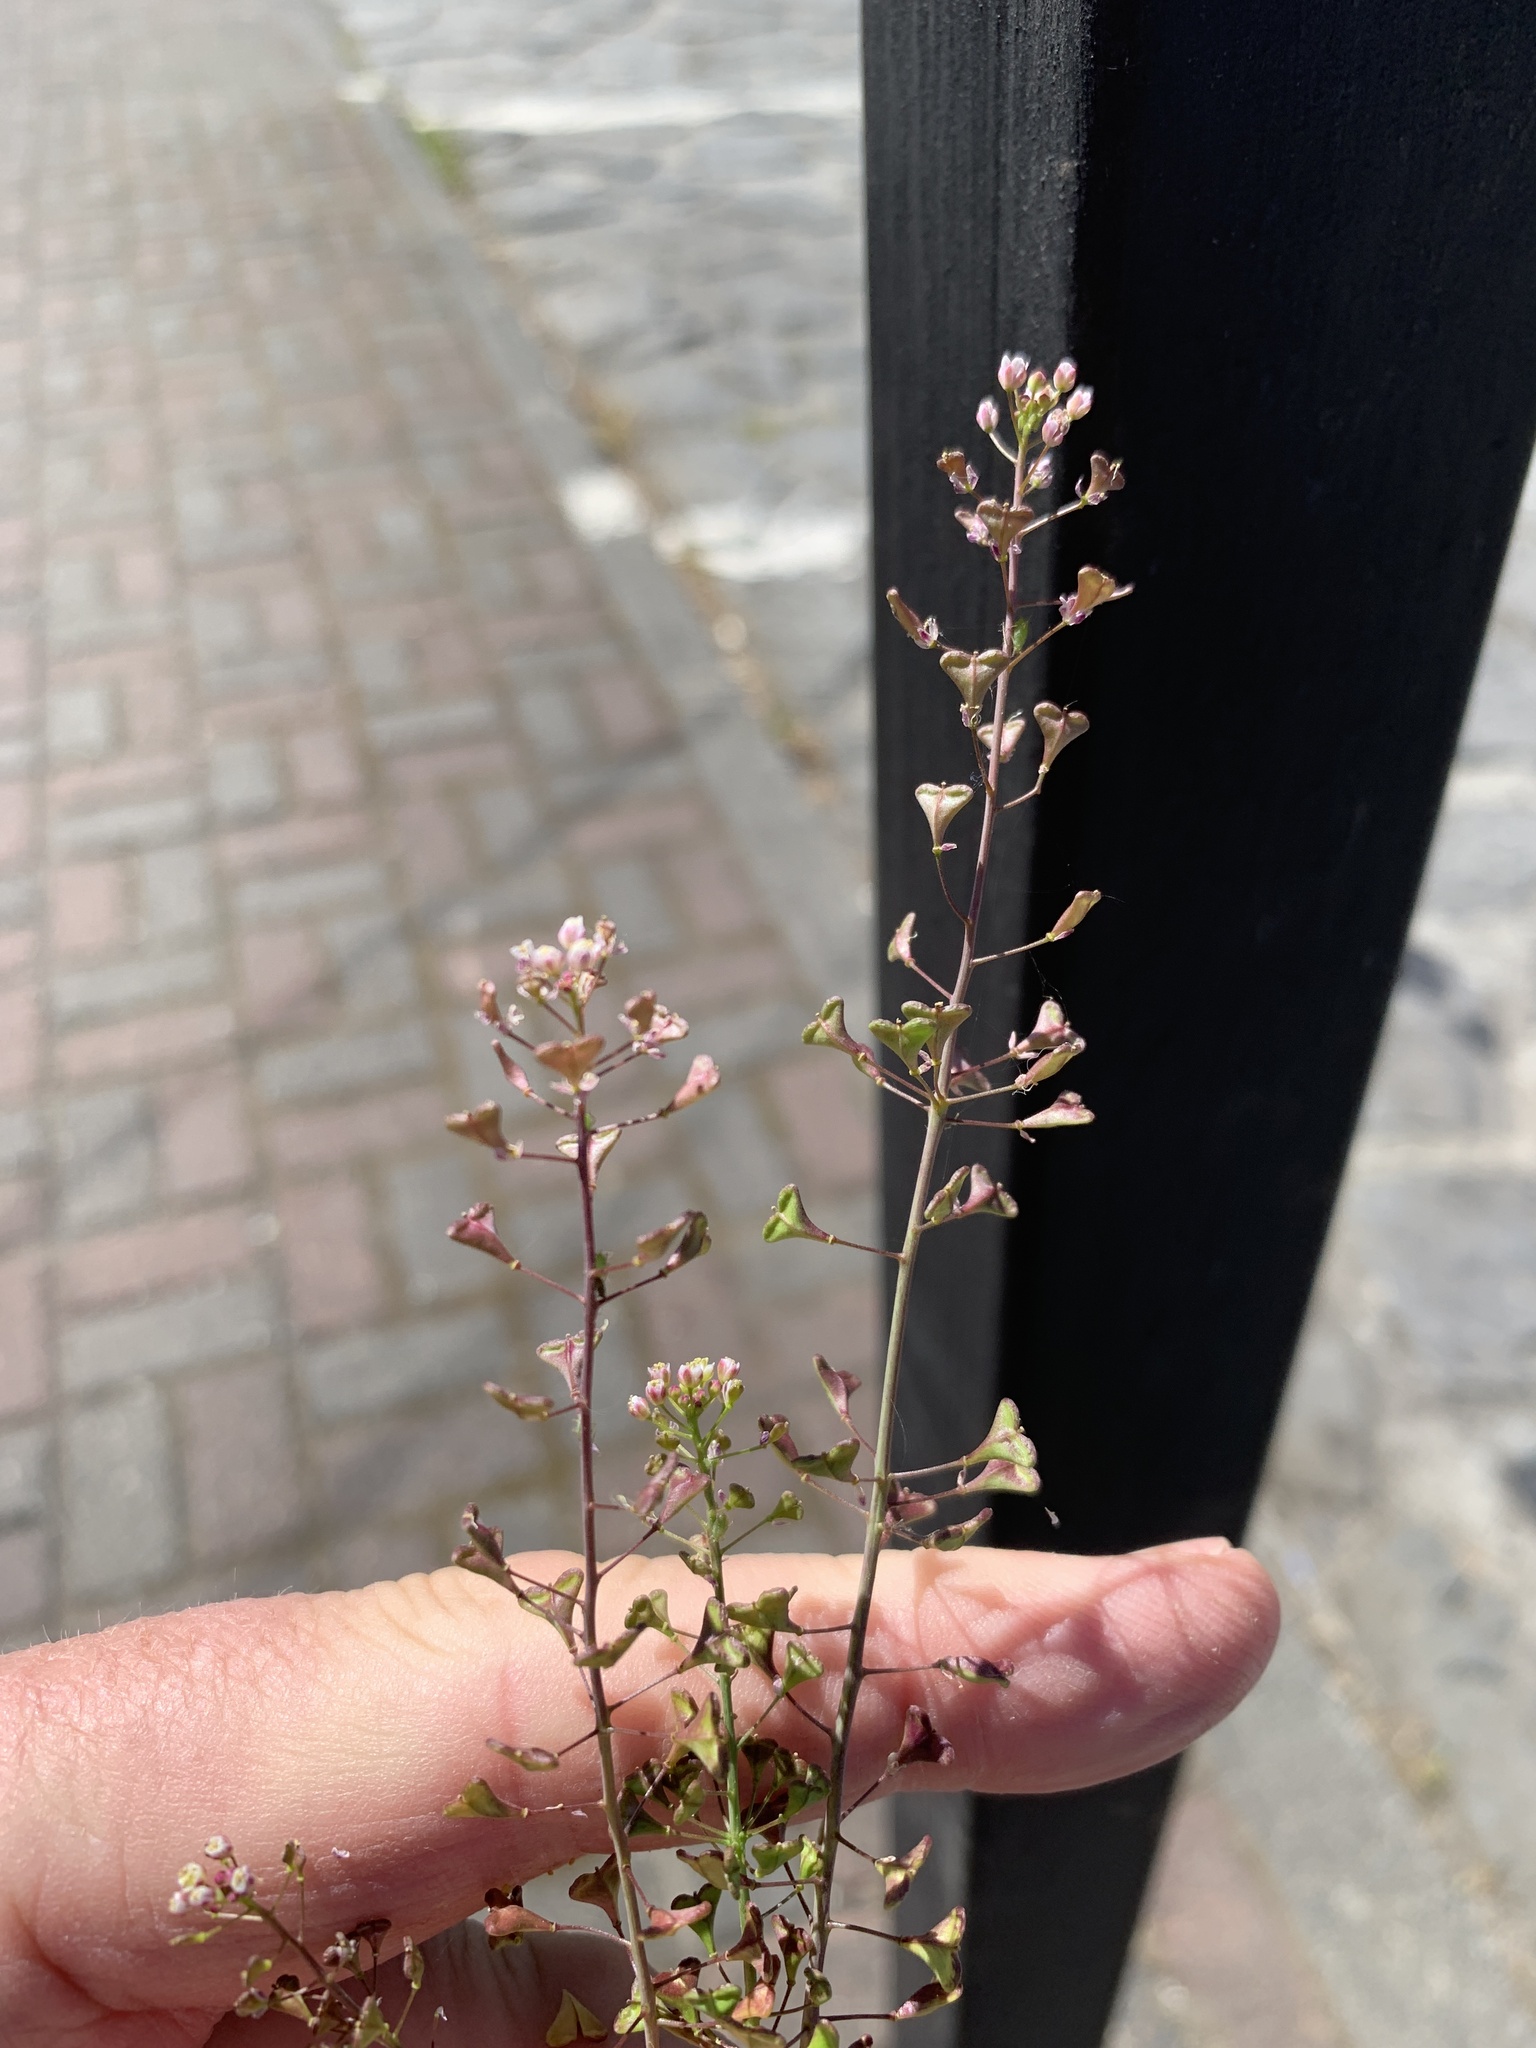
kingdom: Plantae
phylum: Tracheophyta
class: Magnoliopsida
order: Brassicales
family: Brassicaceae
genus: Capsella
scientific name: Capsella bursa-pastoris
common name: Shepherd's purse
